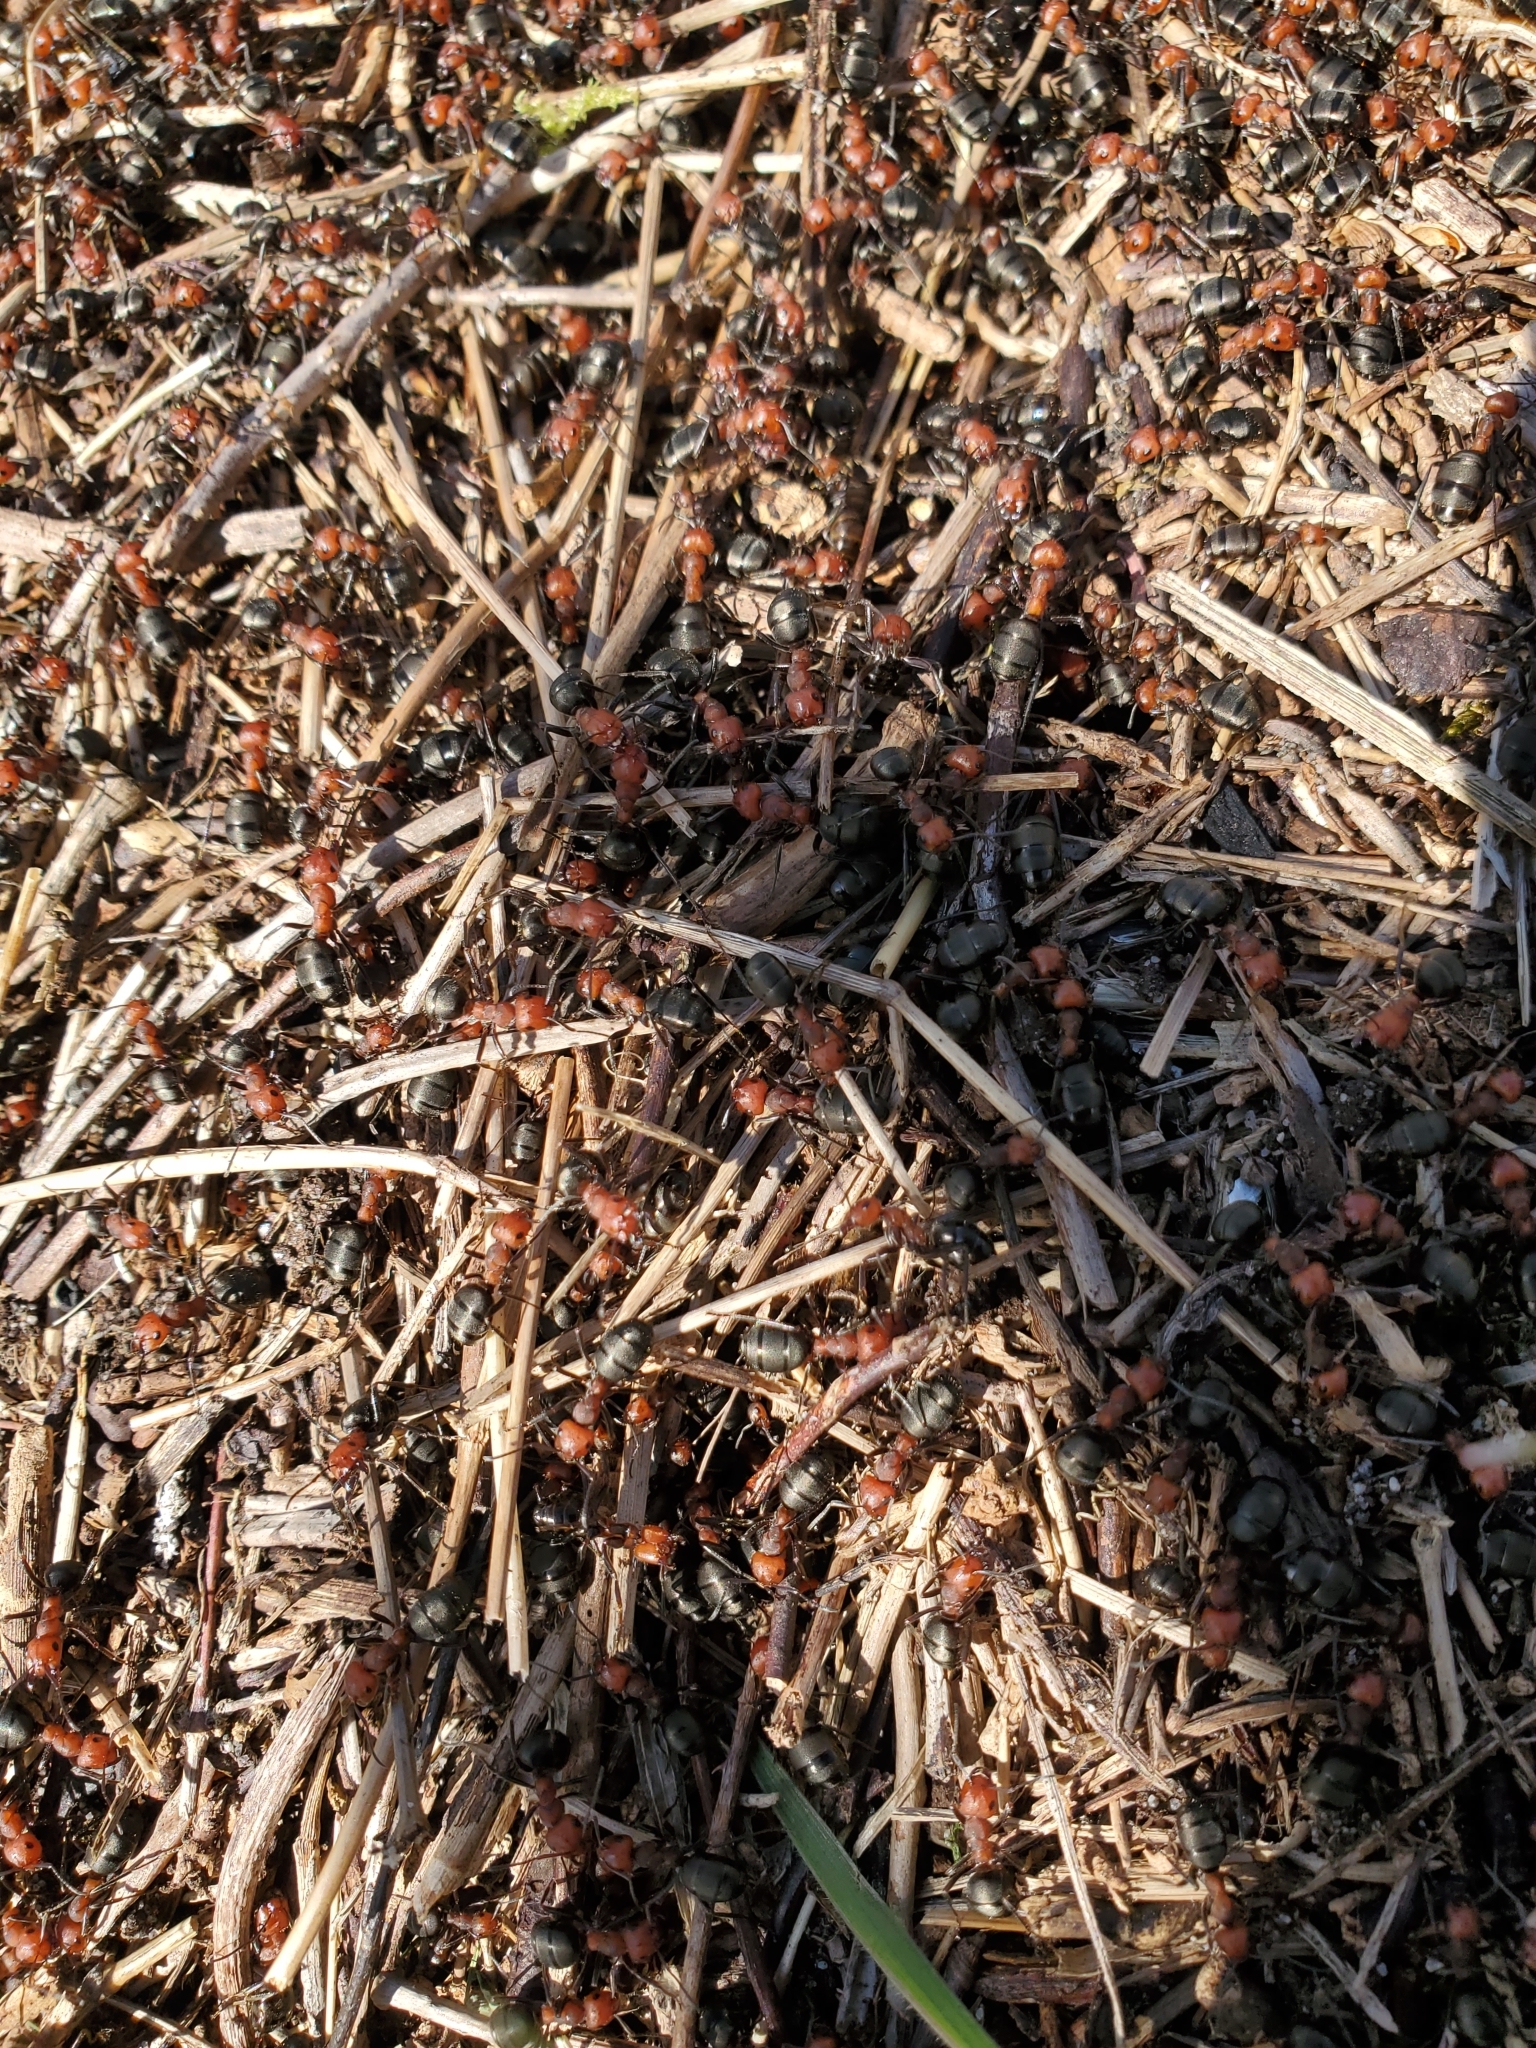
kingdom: Animalia
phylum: Arthropoda
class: Insecta
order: Hymenoptera
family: Formicidae
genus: Formica
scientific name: Formica obscuripes
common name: Western thatching ant
